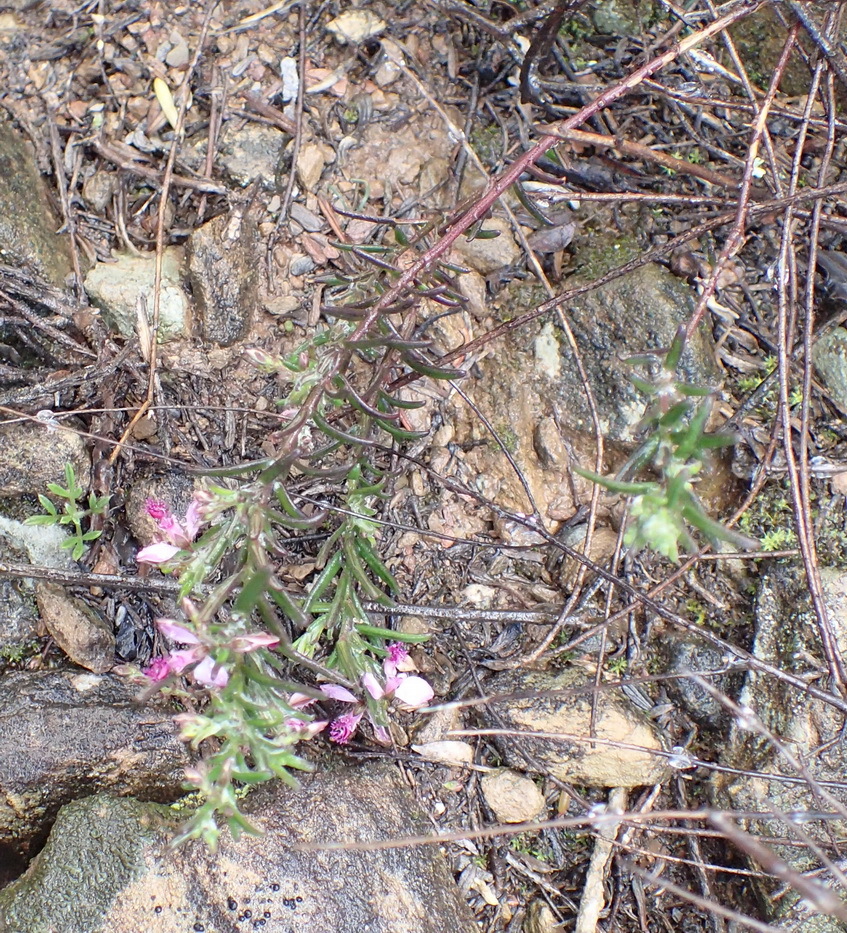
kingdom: Plantae
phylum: Tracheophyta
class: Magnoliopsida
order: Fabales
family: Polygalaceae
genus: Polygala
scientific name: Polygala scabra
